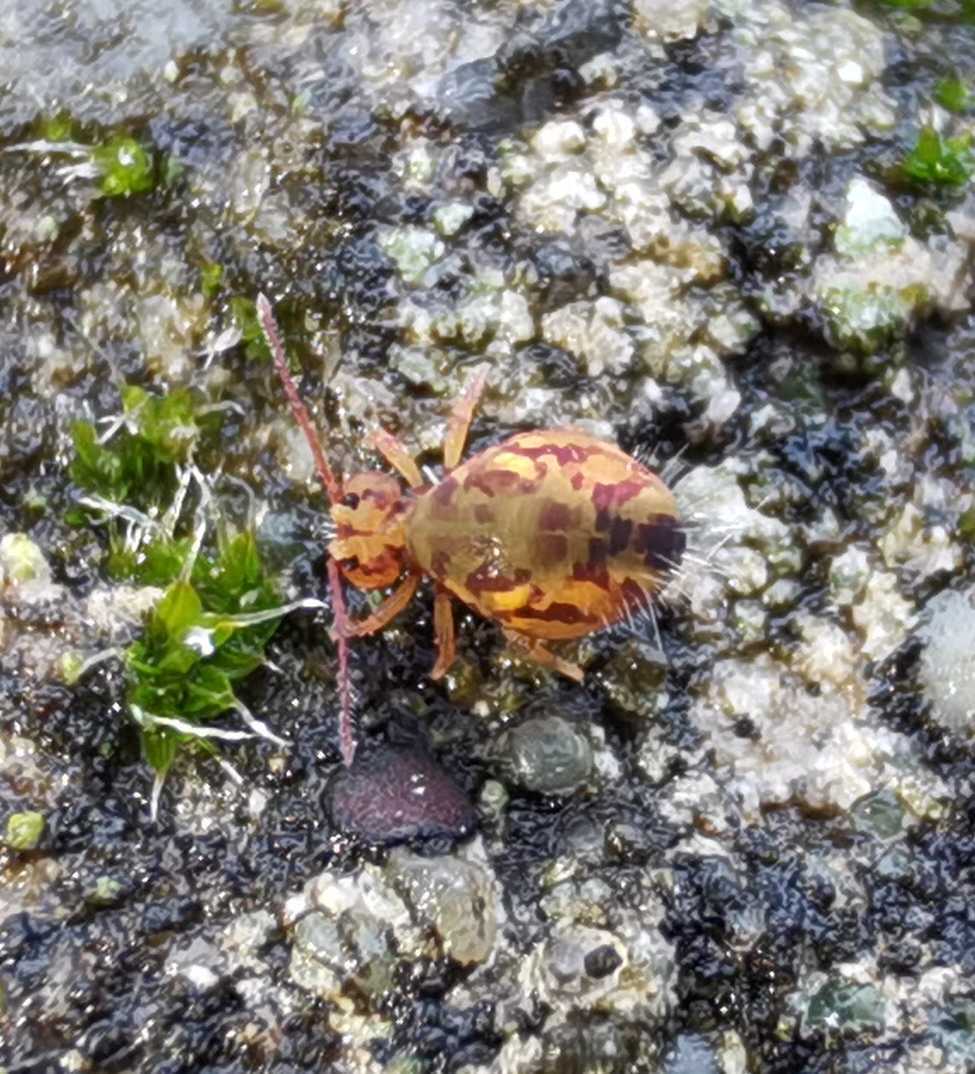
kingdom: Animalia
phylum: Arthropoda
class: Collembola
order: Symphypleona
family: Dicyrtomidae
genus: Dicyrtomina
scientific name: Dicyrtomina ornata
